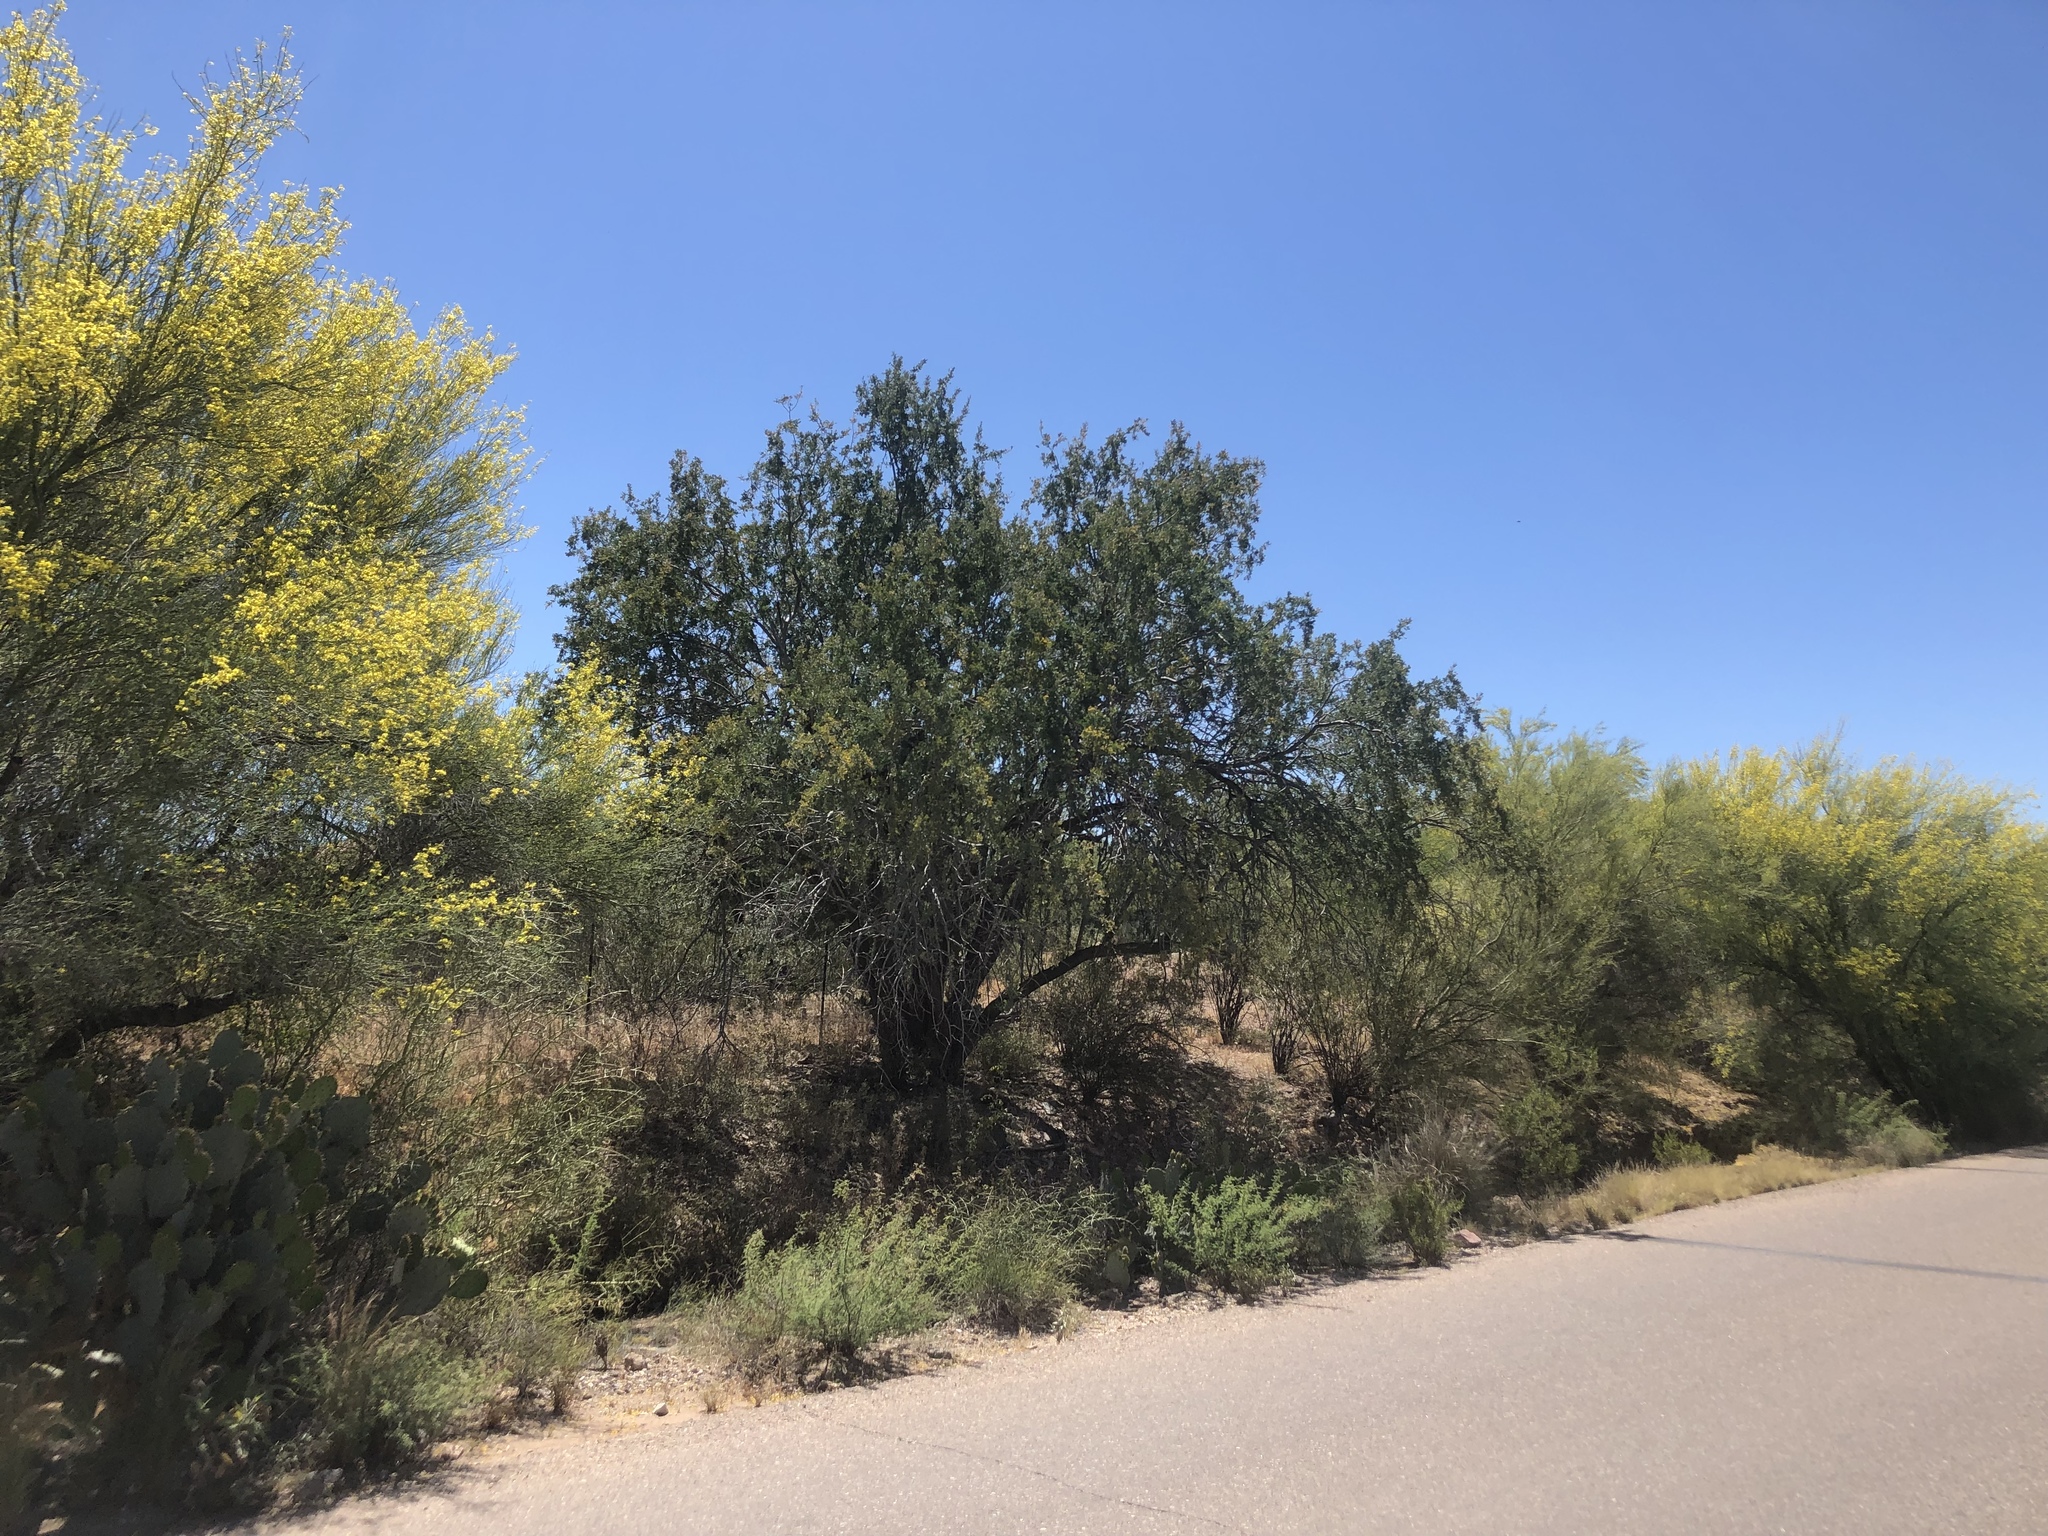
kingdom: Plantae
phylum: Tracheophyta
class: Magnoliopsida
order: Fabales
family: Fabaceae
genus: Olneya
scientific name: Olneya tesota
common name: Desert ironwood
